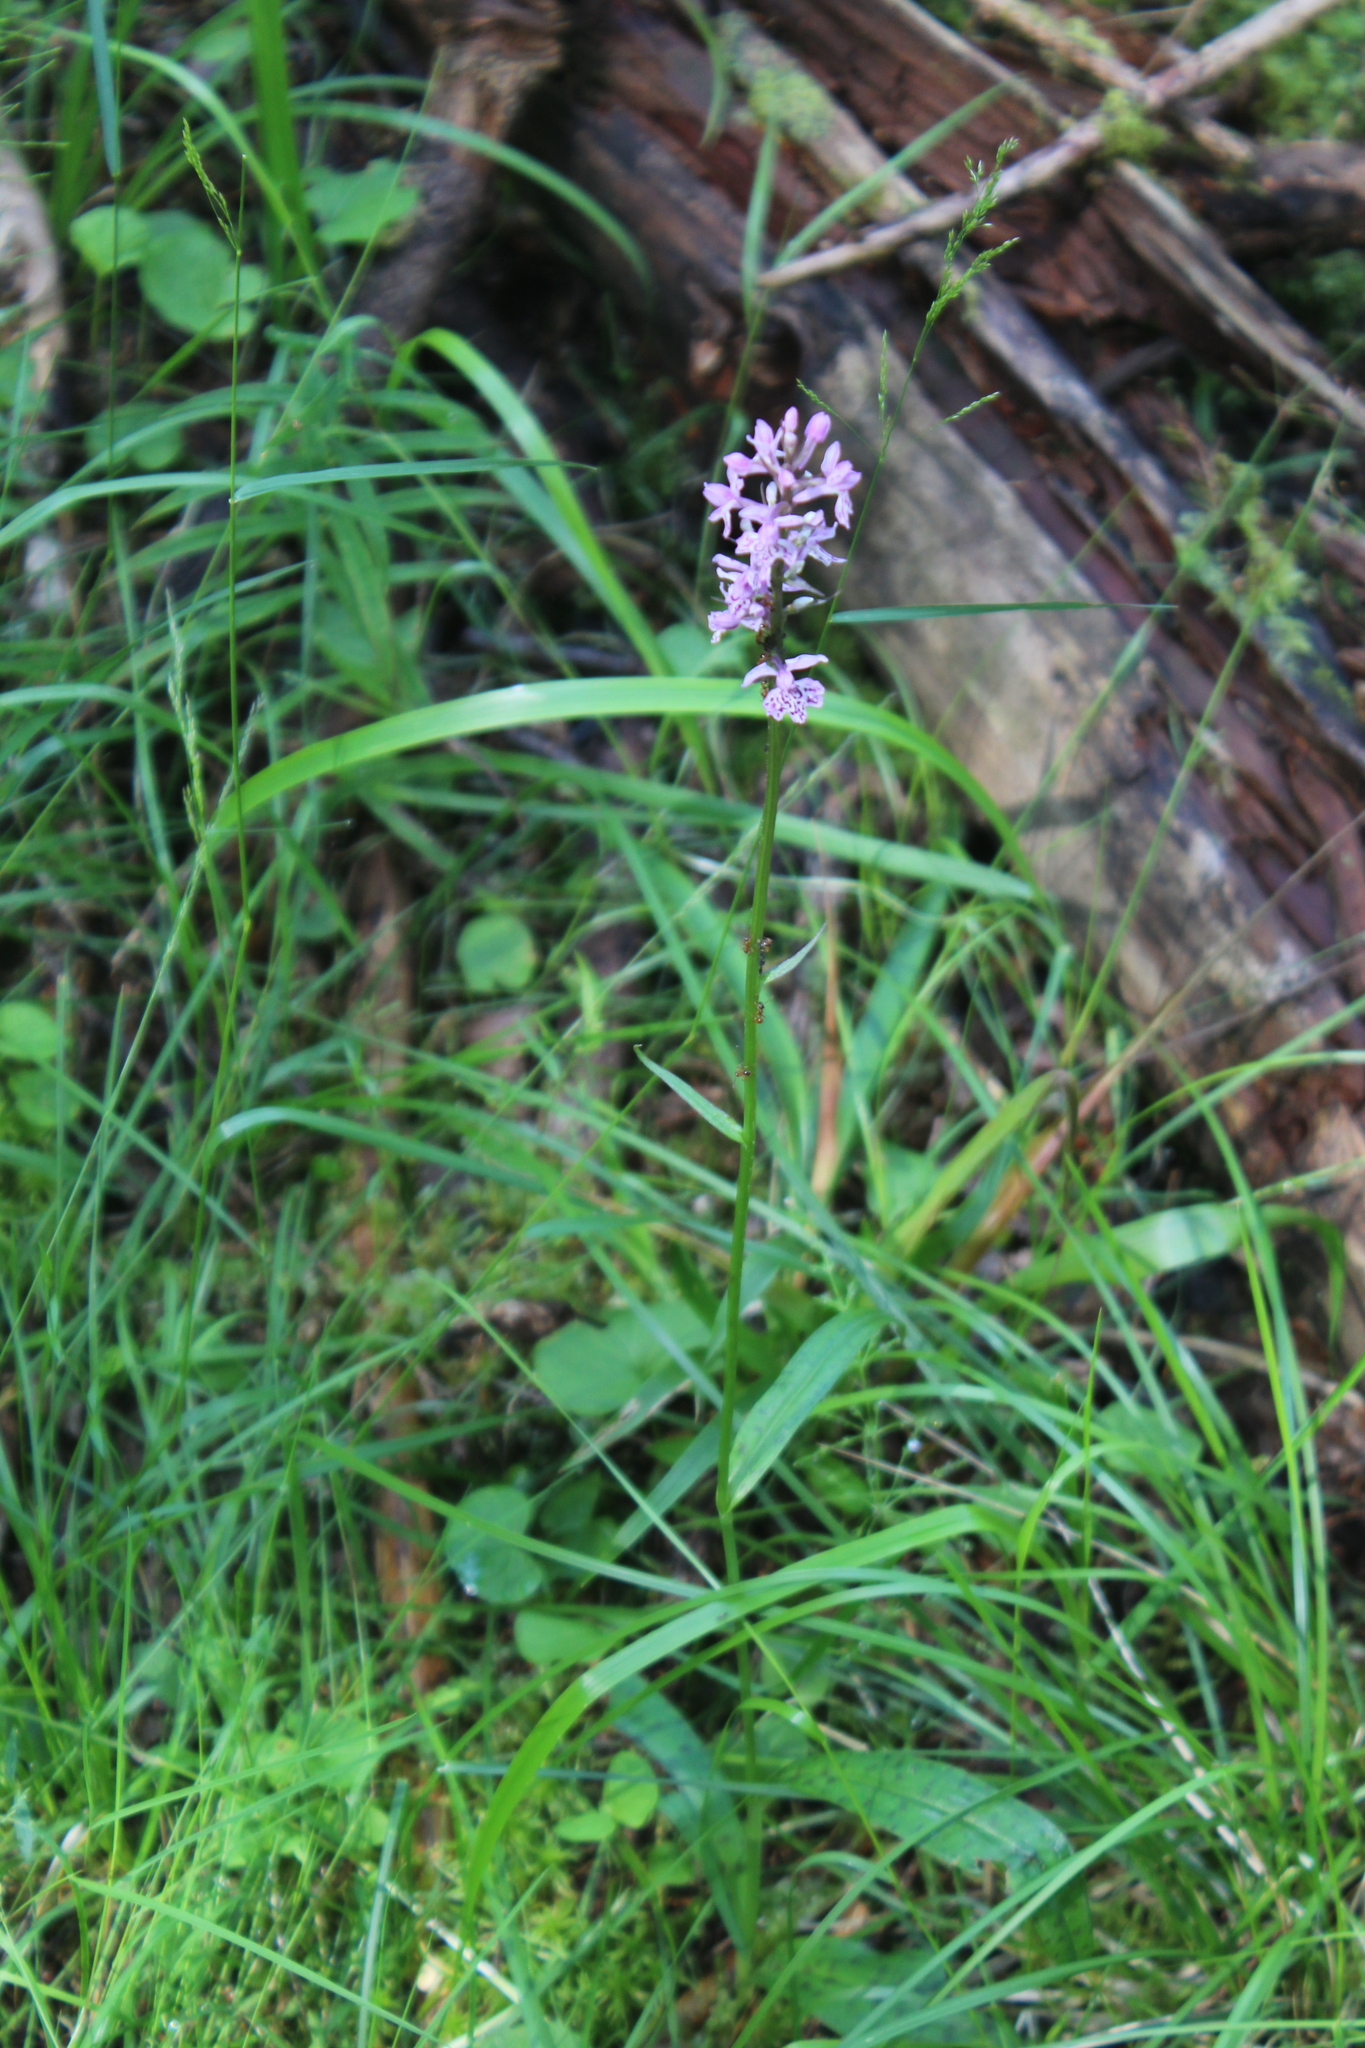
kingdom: Plantae
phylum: Tracheophyta
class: Liliopsida
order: Asparagales
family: Orchidaceae
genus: Dactylorhiza
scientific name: Dactylorhiza maculata
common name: Heath spotted-orchid
